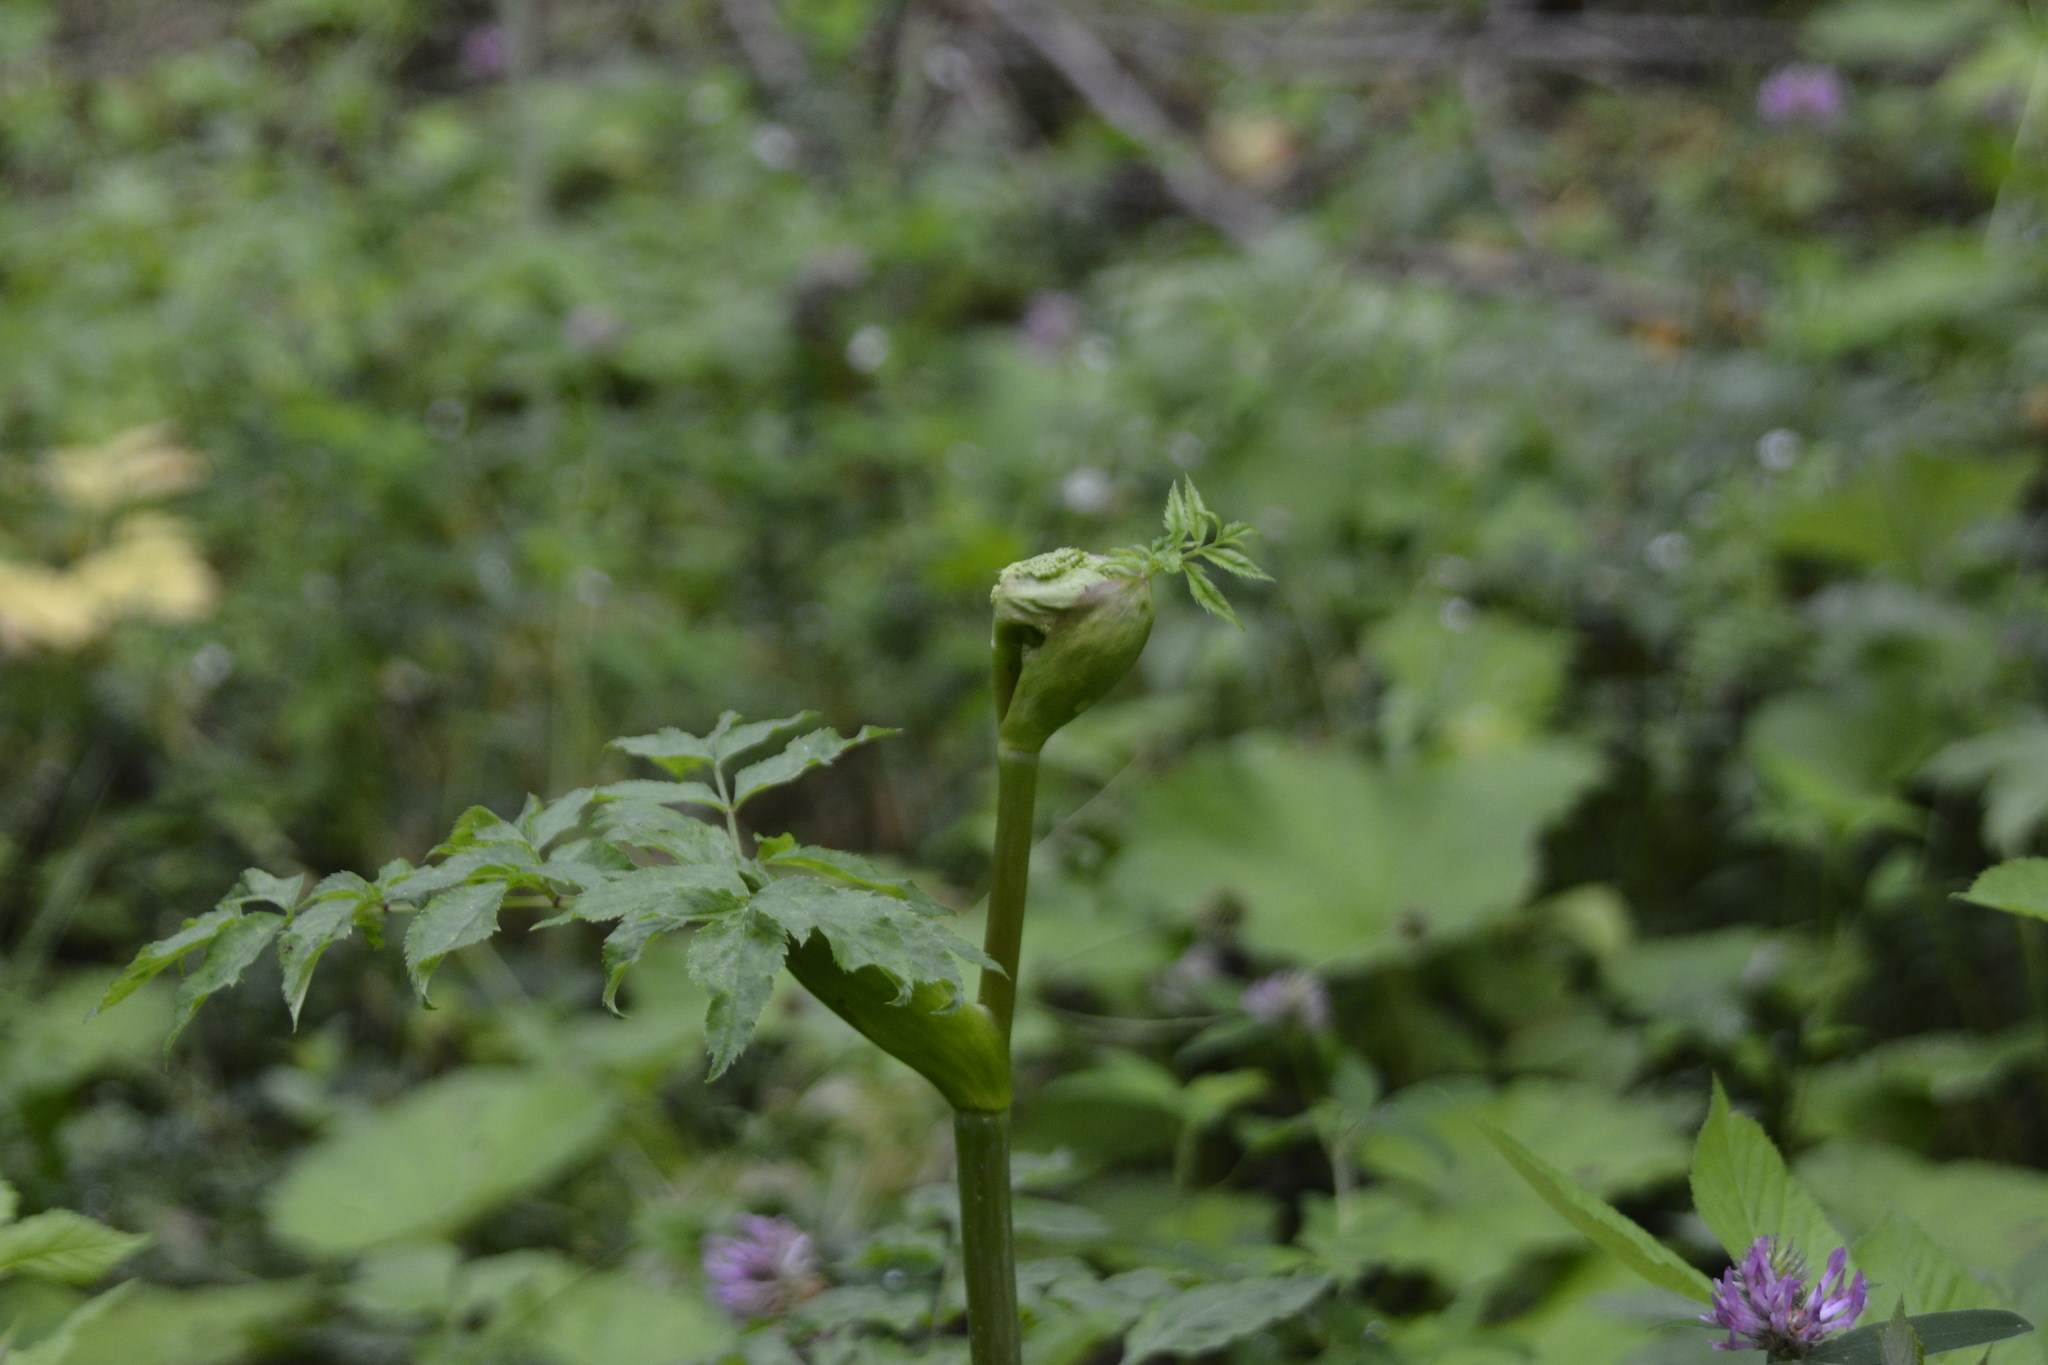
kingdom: Plantae
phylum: Tracheophyta
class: Magnoliopsida
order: Apiales
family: Apiaceae
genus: Angelica
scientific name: Angelica sylvestris
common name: Wild angelica
